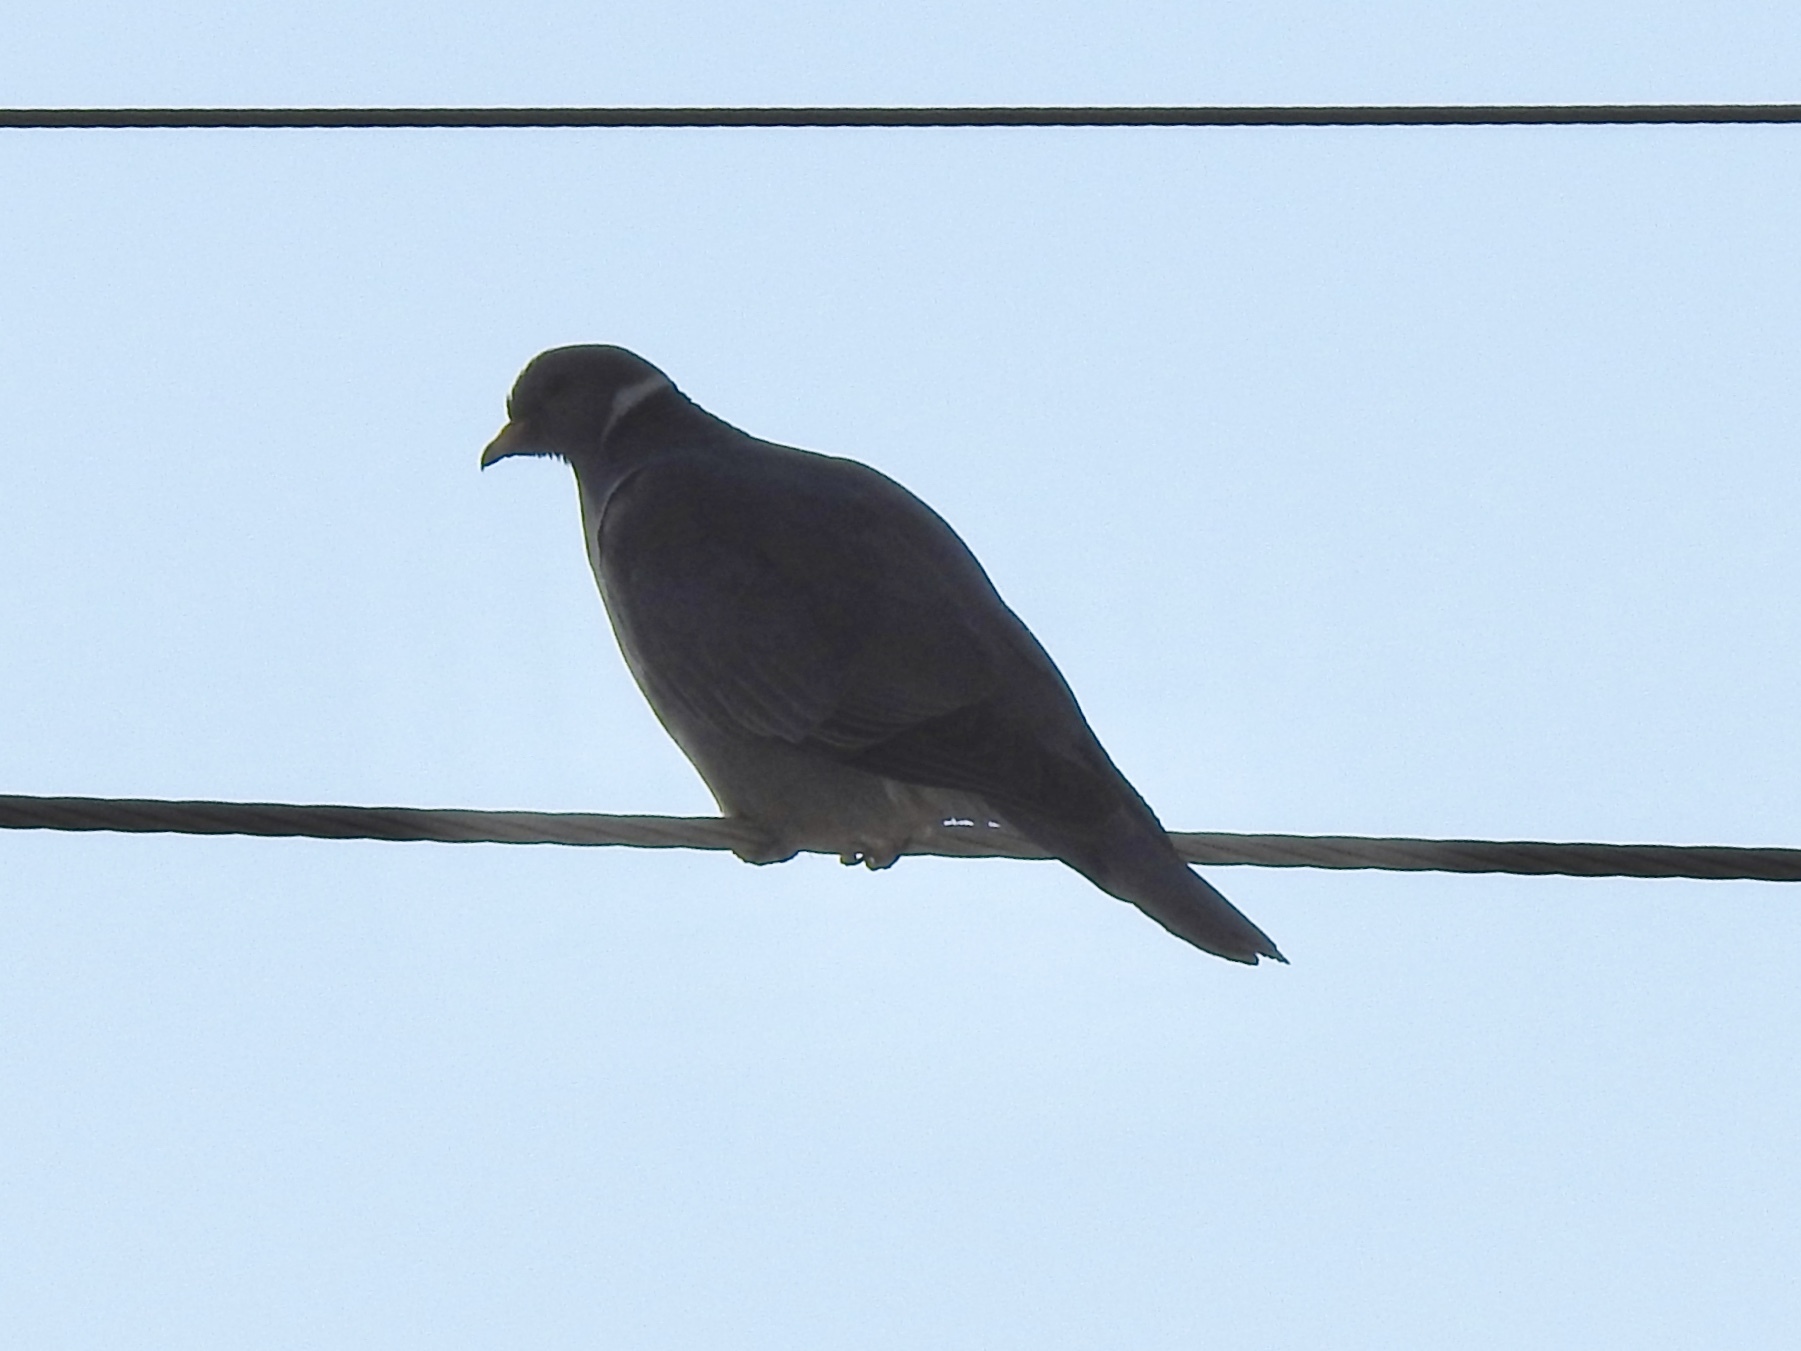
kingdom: Animalia
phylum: Chordata
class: Aves
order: Columbiformes
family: Columbidae
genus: Patagioenas
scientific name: Patagioenas fasciata
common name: Band-tailed pigeon
